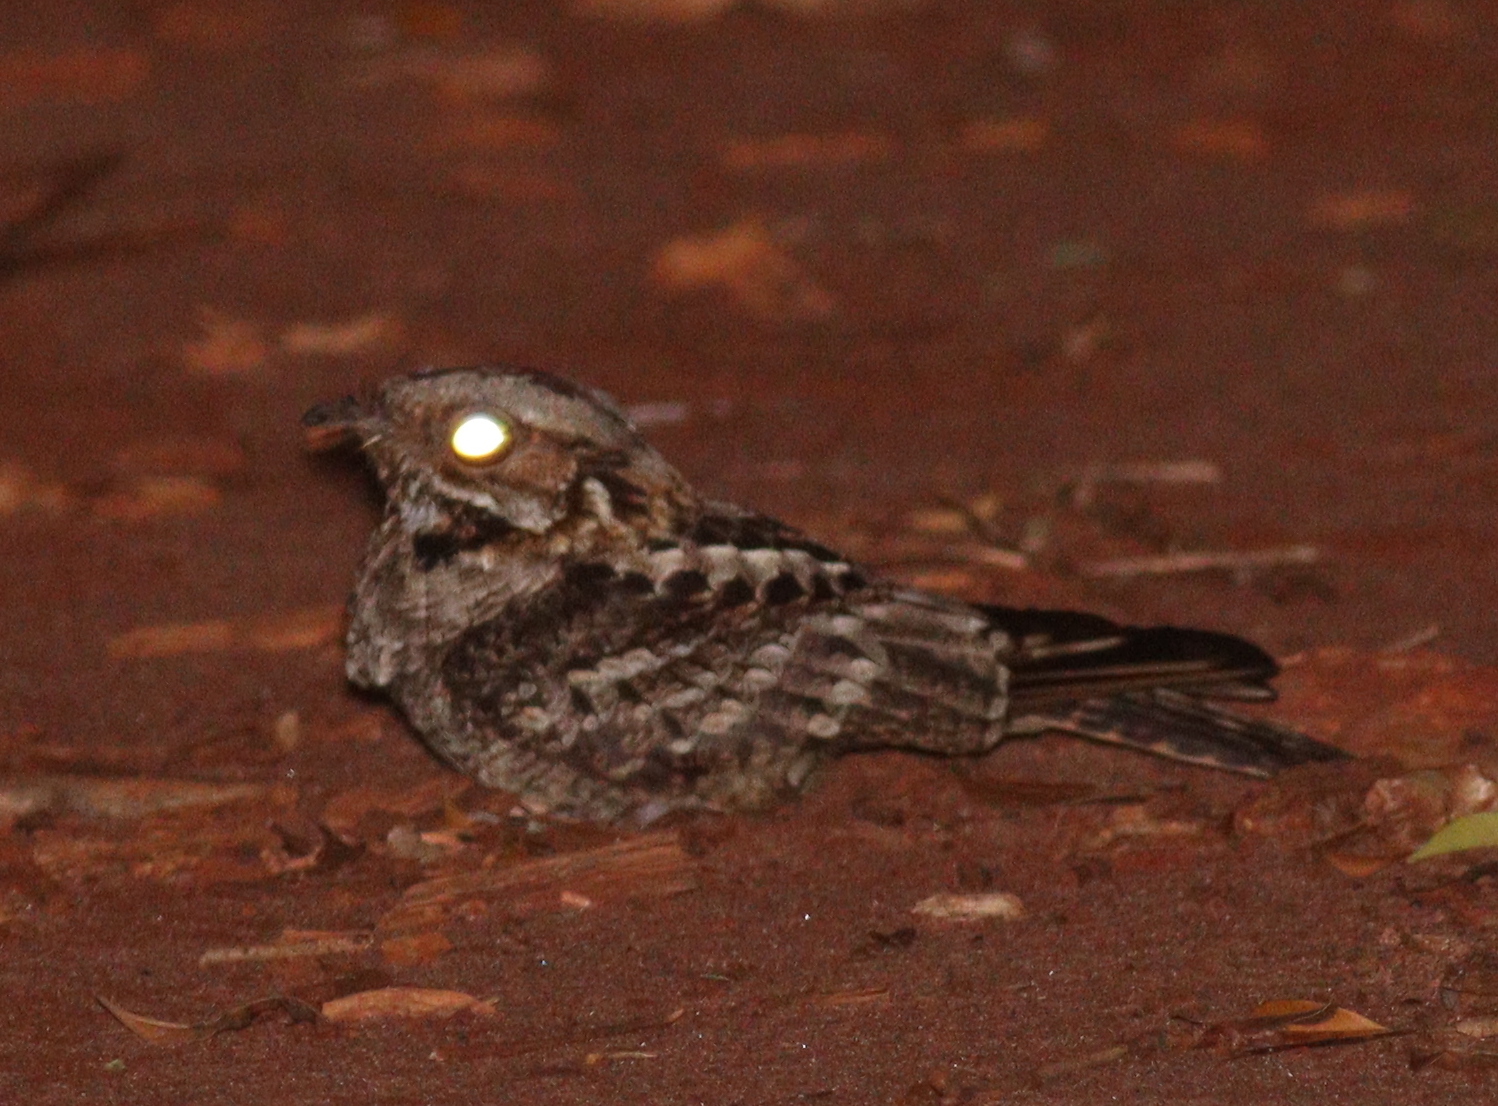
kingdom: Animalia
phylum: Chordata
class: Aves
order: Caprimulgiformes
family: Caprimulgidae
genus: Caprimulgus
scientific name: Caprimulgus pectoralis
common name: Fiery-necked nightjar
